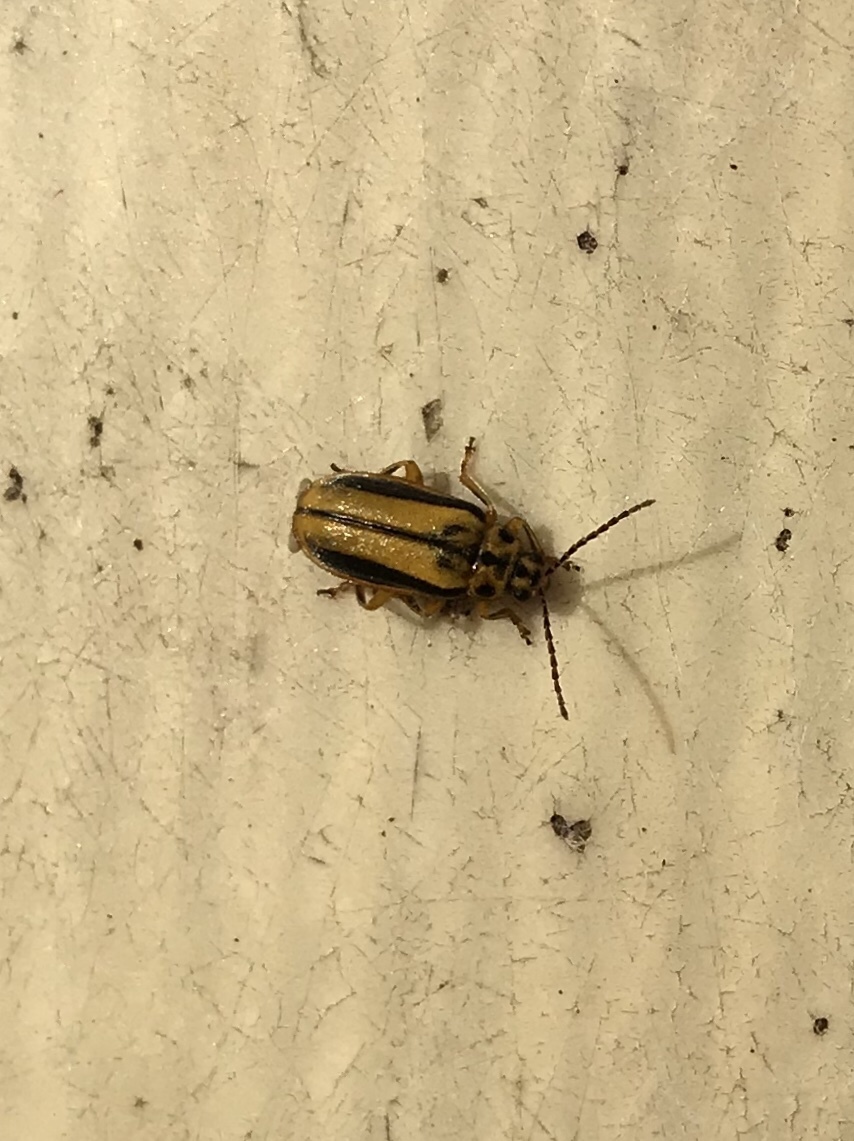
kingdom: Animalia
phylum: Arthropoda
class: Insecta
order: Coleoptera
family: Chrysomelidae
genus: Xanthogaleruca
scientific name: Xanthogaleruca luteola
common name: Elm leaf beetle
